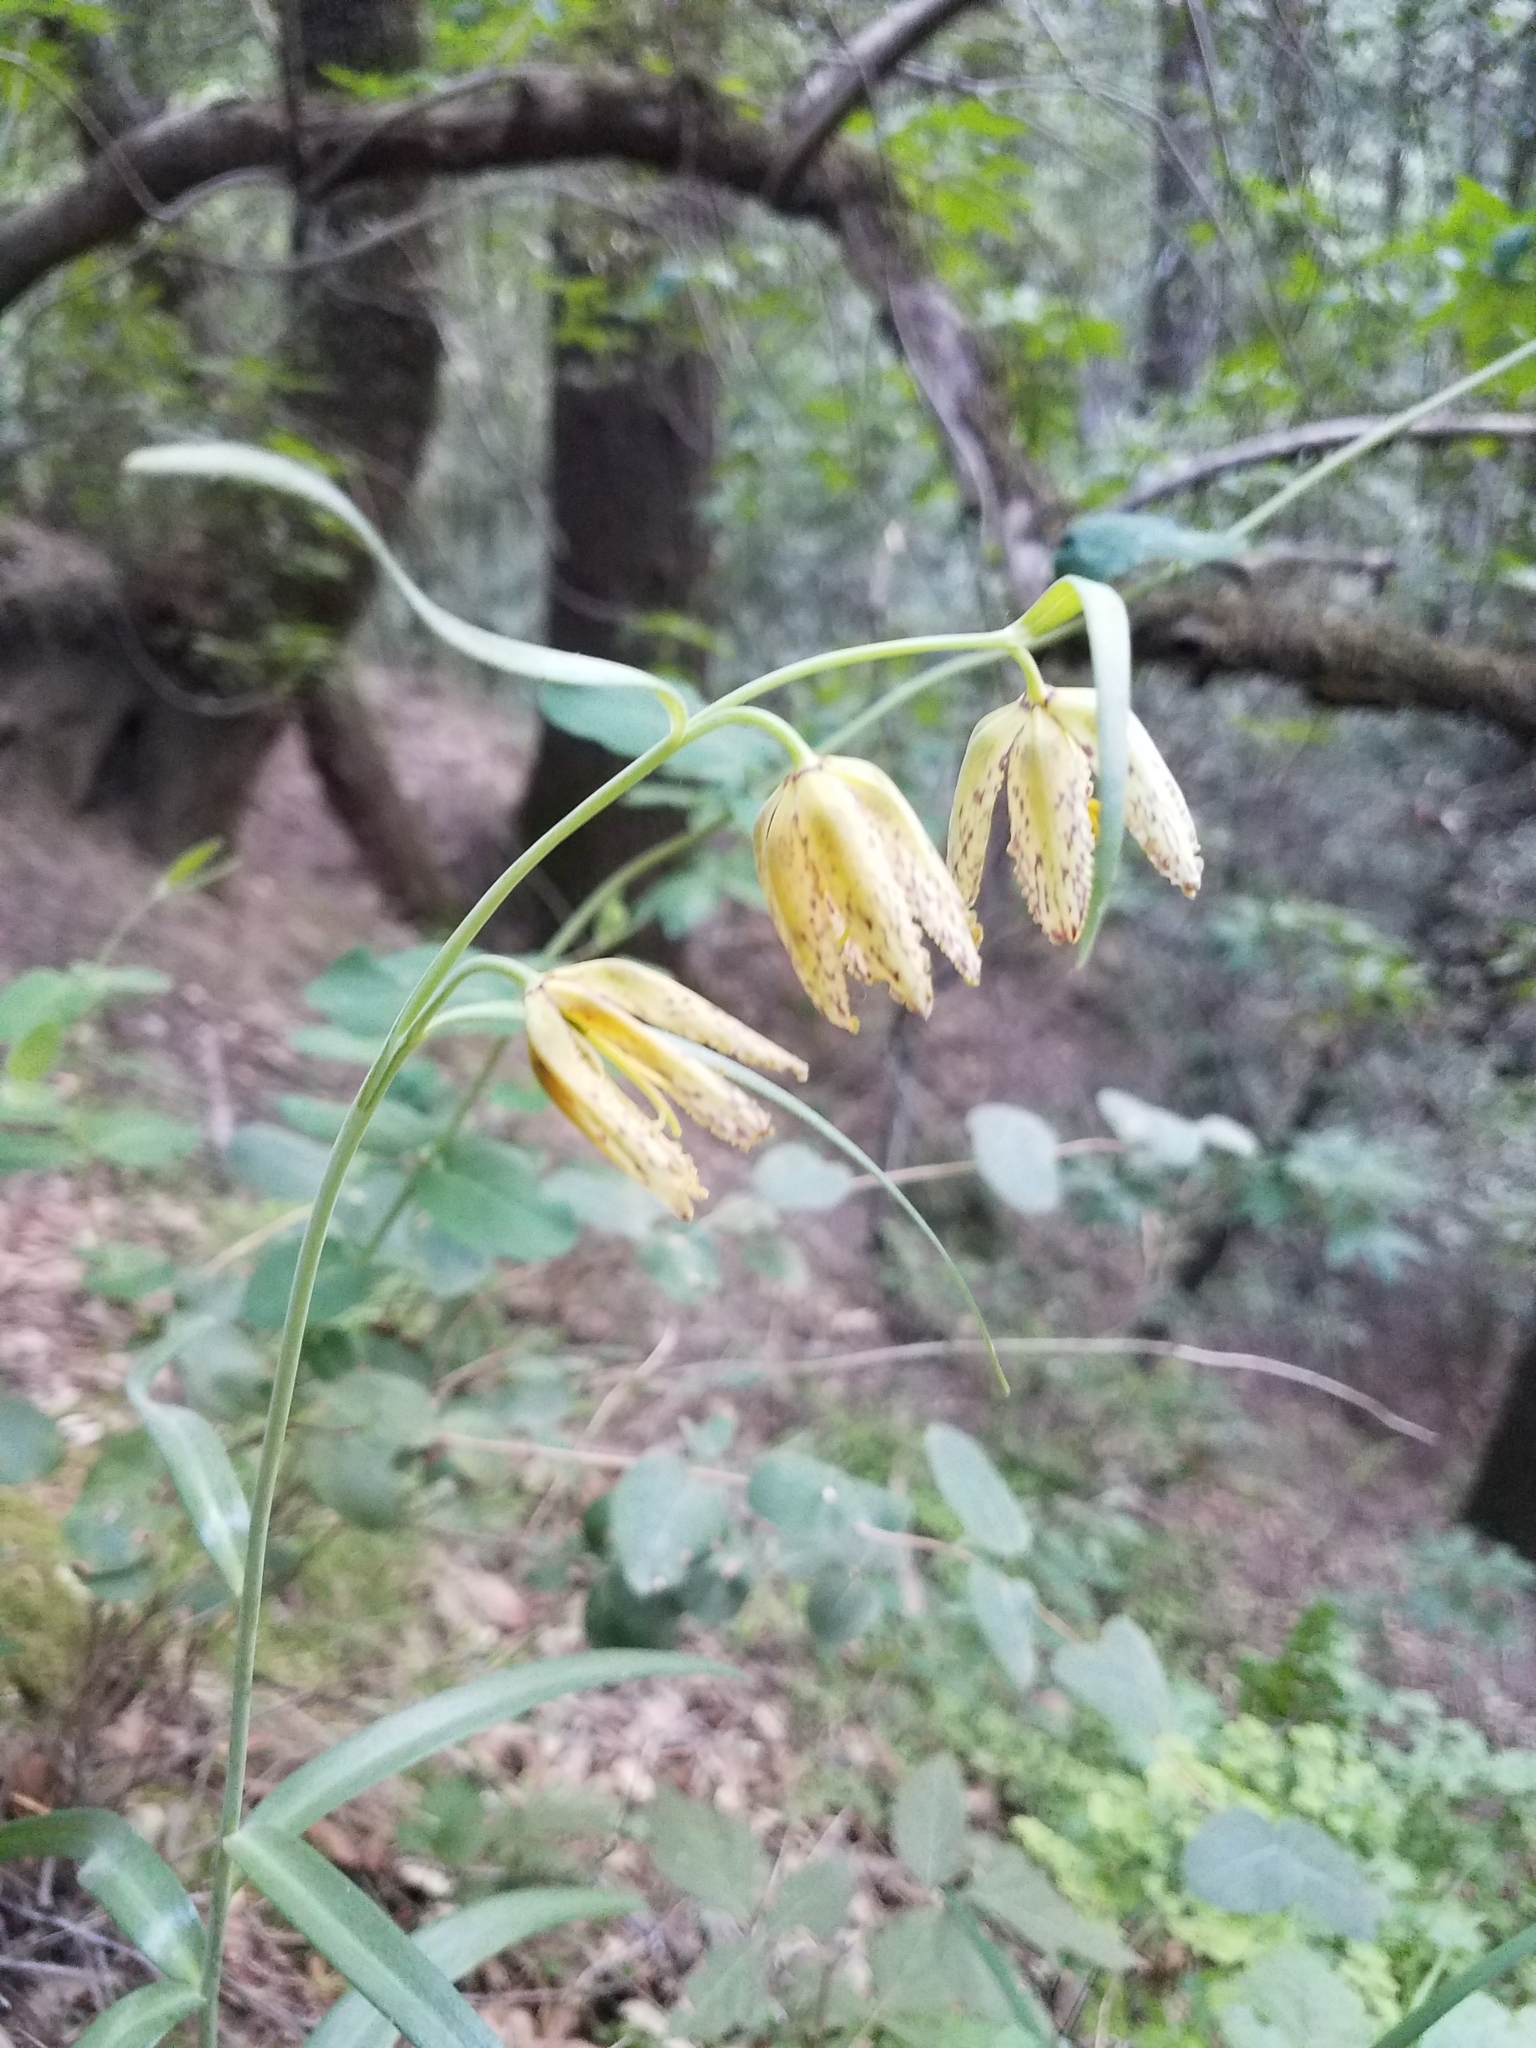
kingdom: Plantae
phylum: Tracheophyta
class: Liliopsida
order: Liliales
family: Liliaceae
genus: Fritillaria
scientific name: Fritillaria affinis
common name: Ojai fritillary
